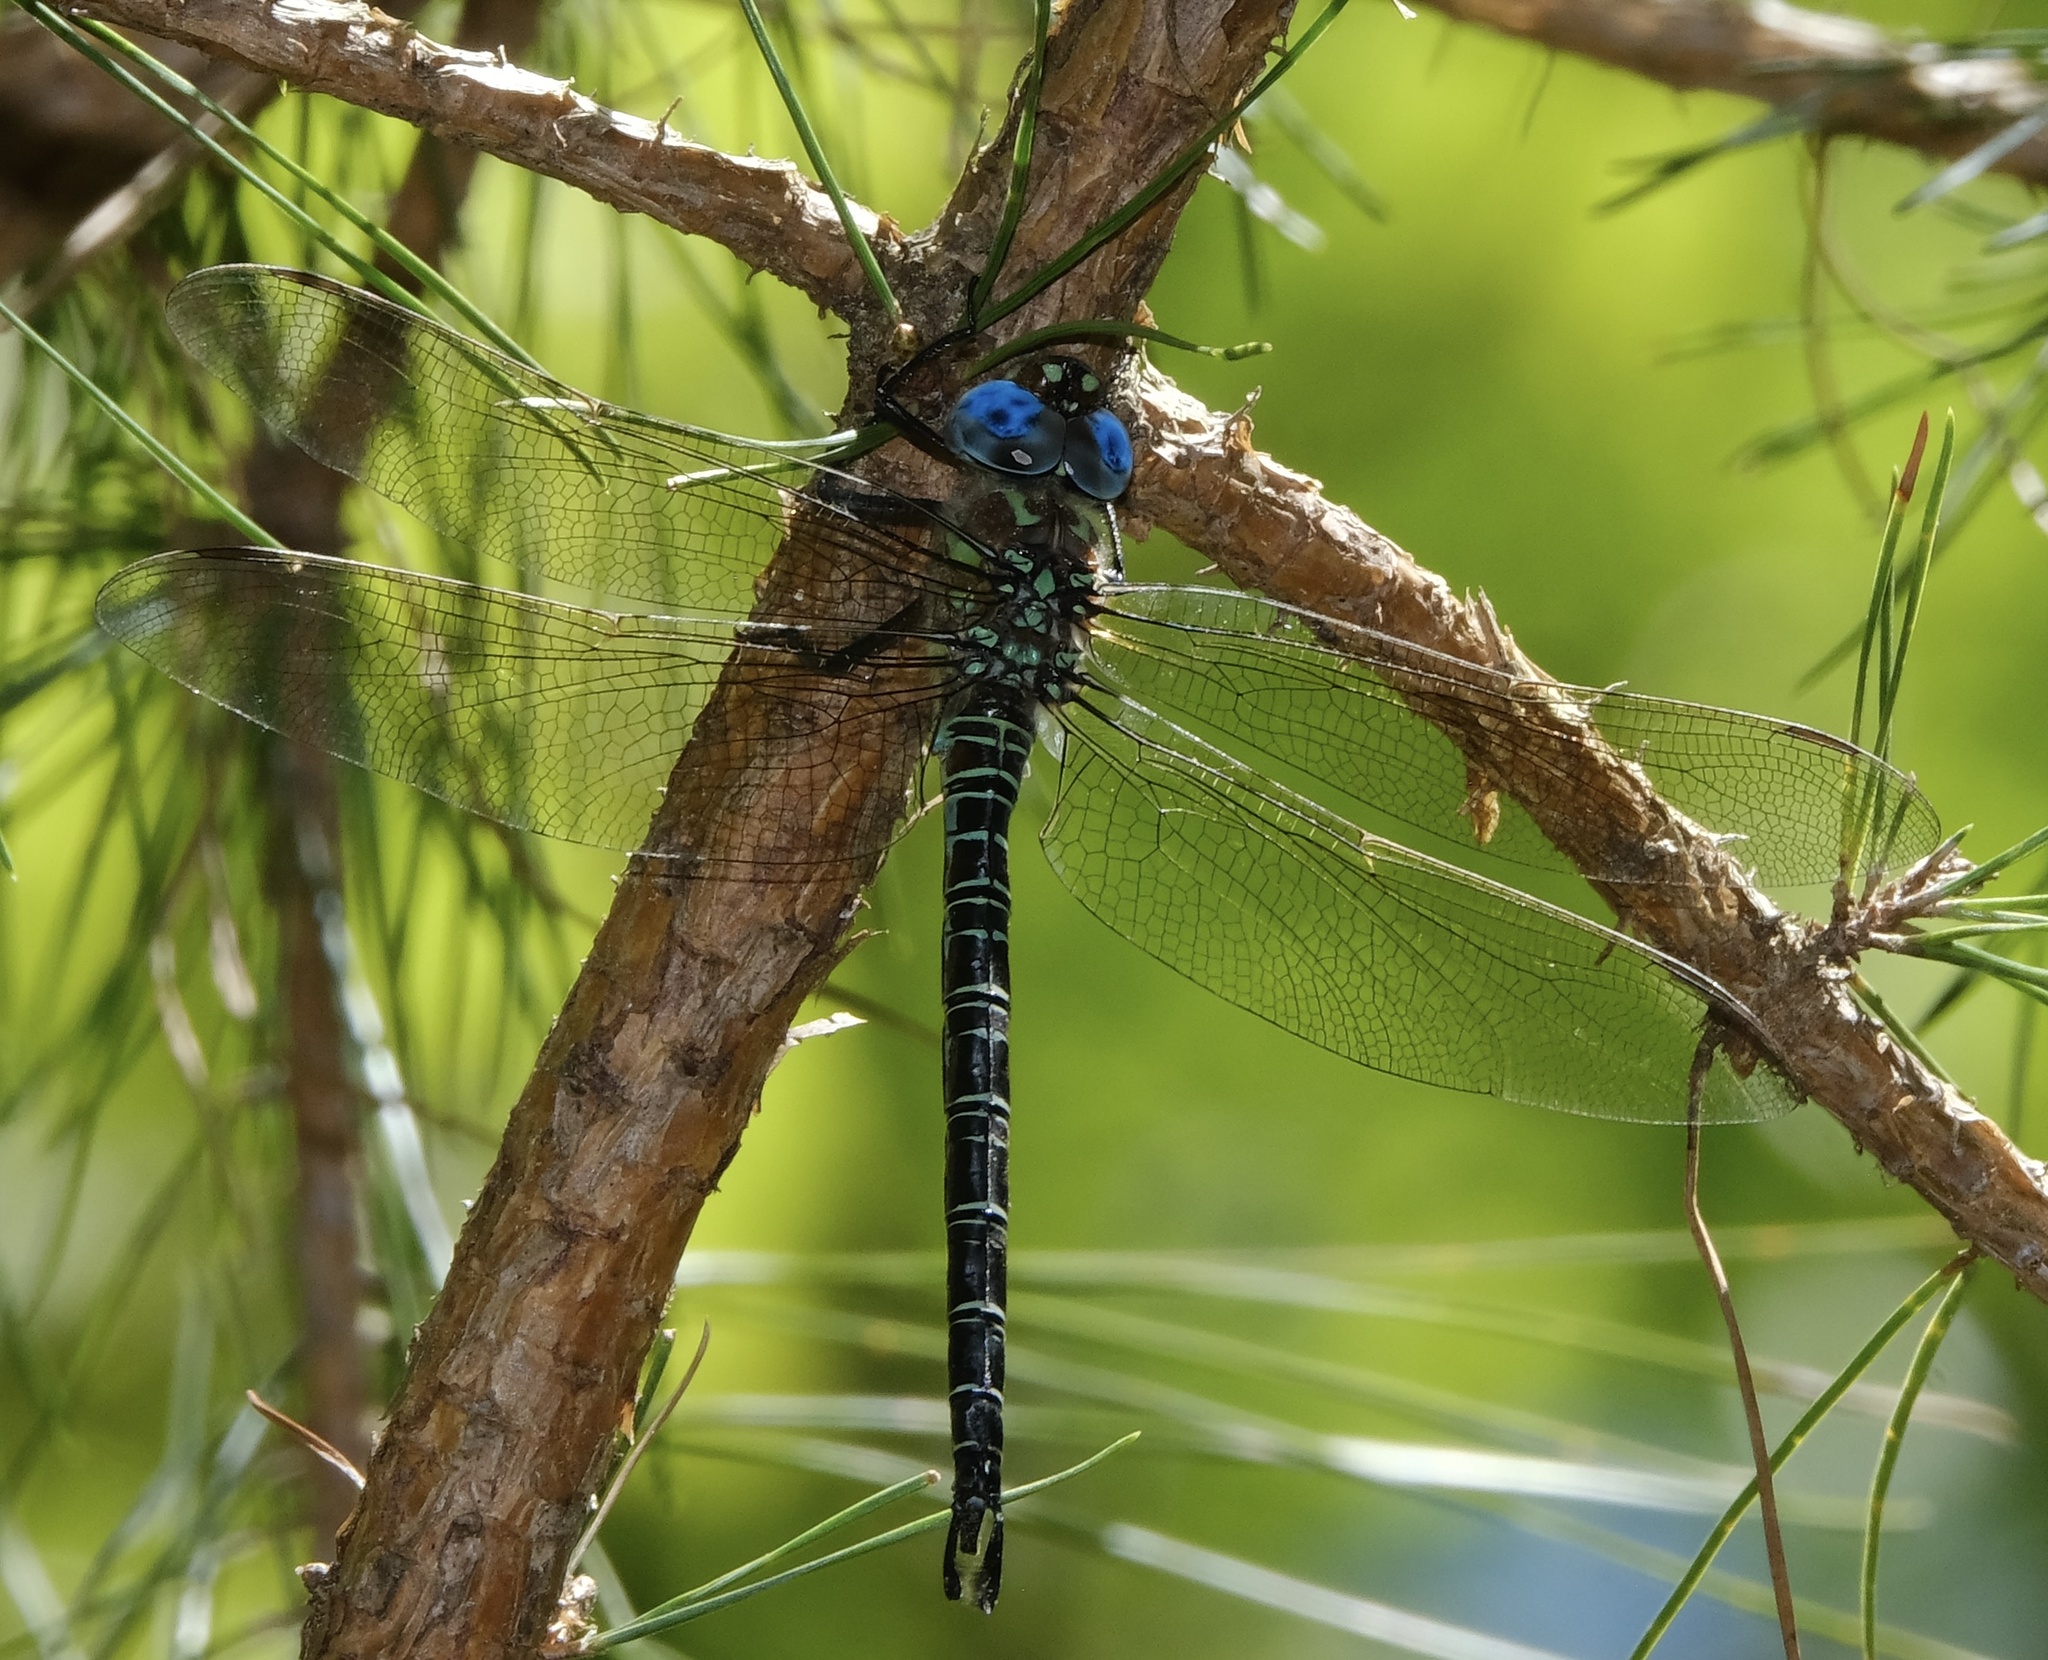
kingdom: Animalia
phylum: Arthropoda
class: Insecta
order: Odonata
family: Aeshnidae
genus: Epiaeschna
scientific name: Epiaeschna heros
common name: Swamp darner
